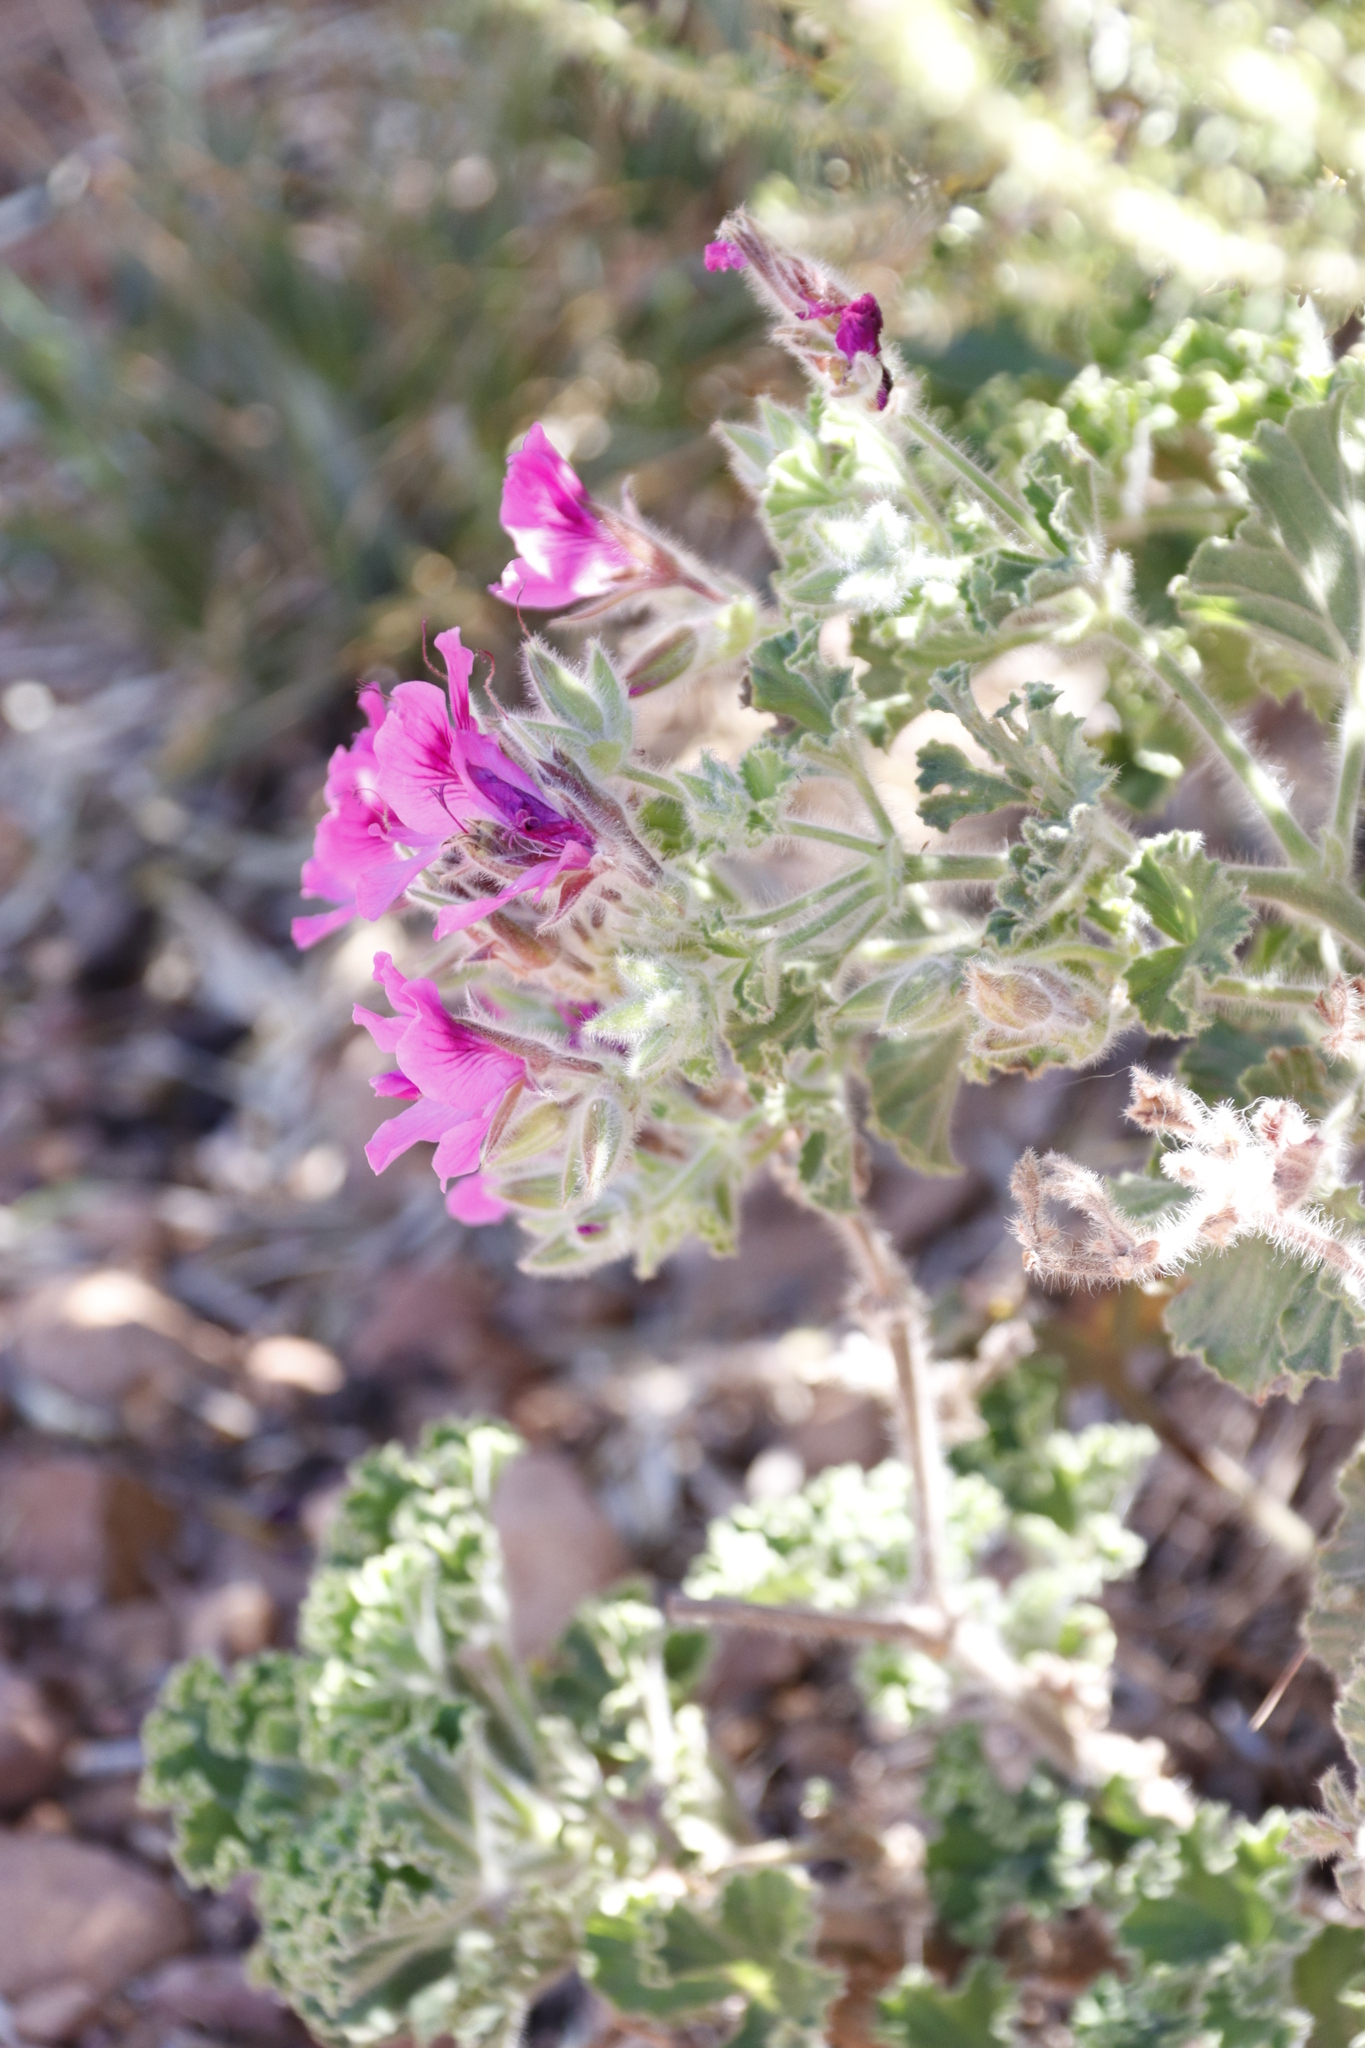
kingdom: Plantae
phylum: Tracheophyta
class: Magnoliopsida
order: Geraniales
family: Geraniaceae
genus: Pelargonium
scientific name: Pelargonium cucullatum
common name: Tree pelargonium
